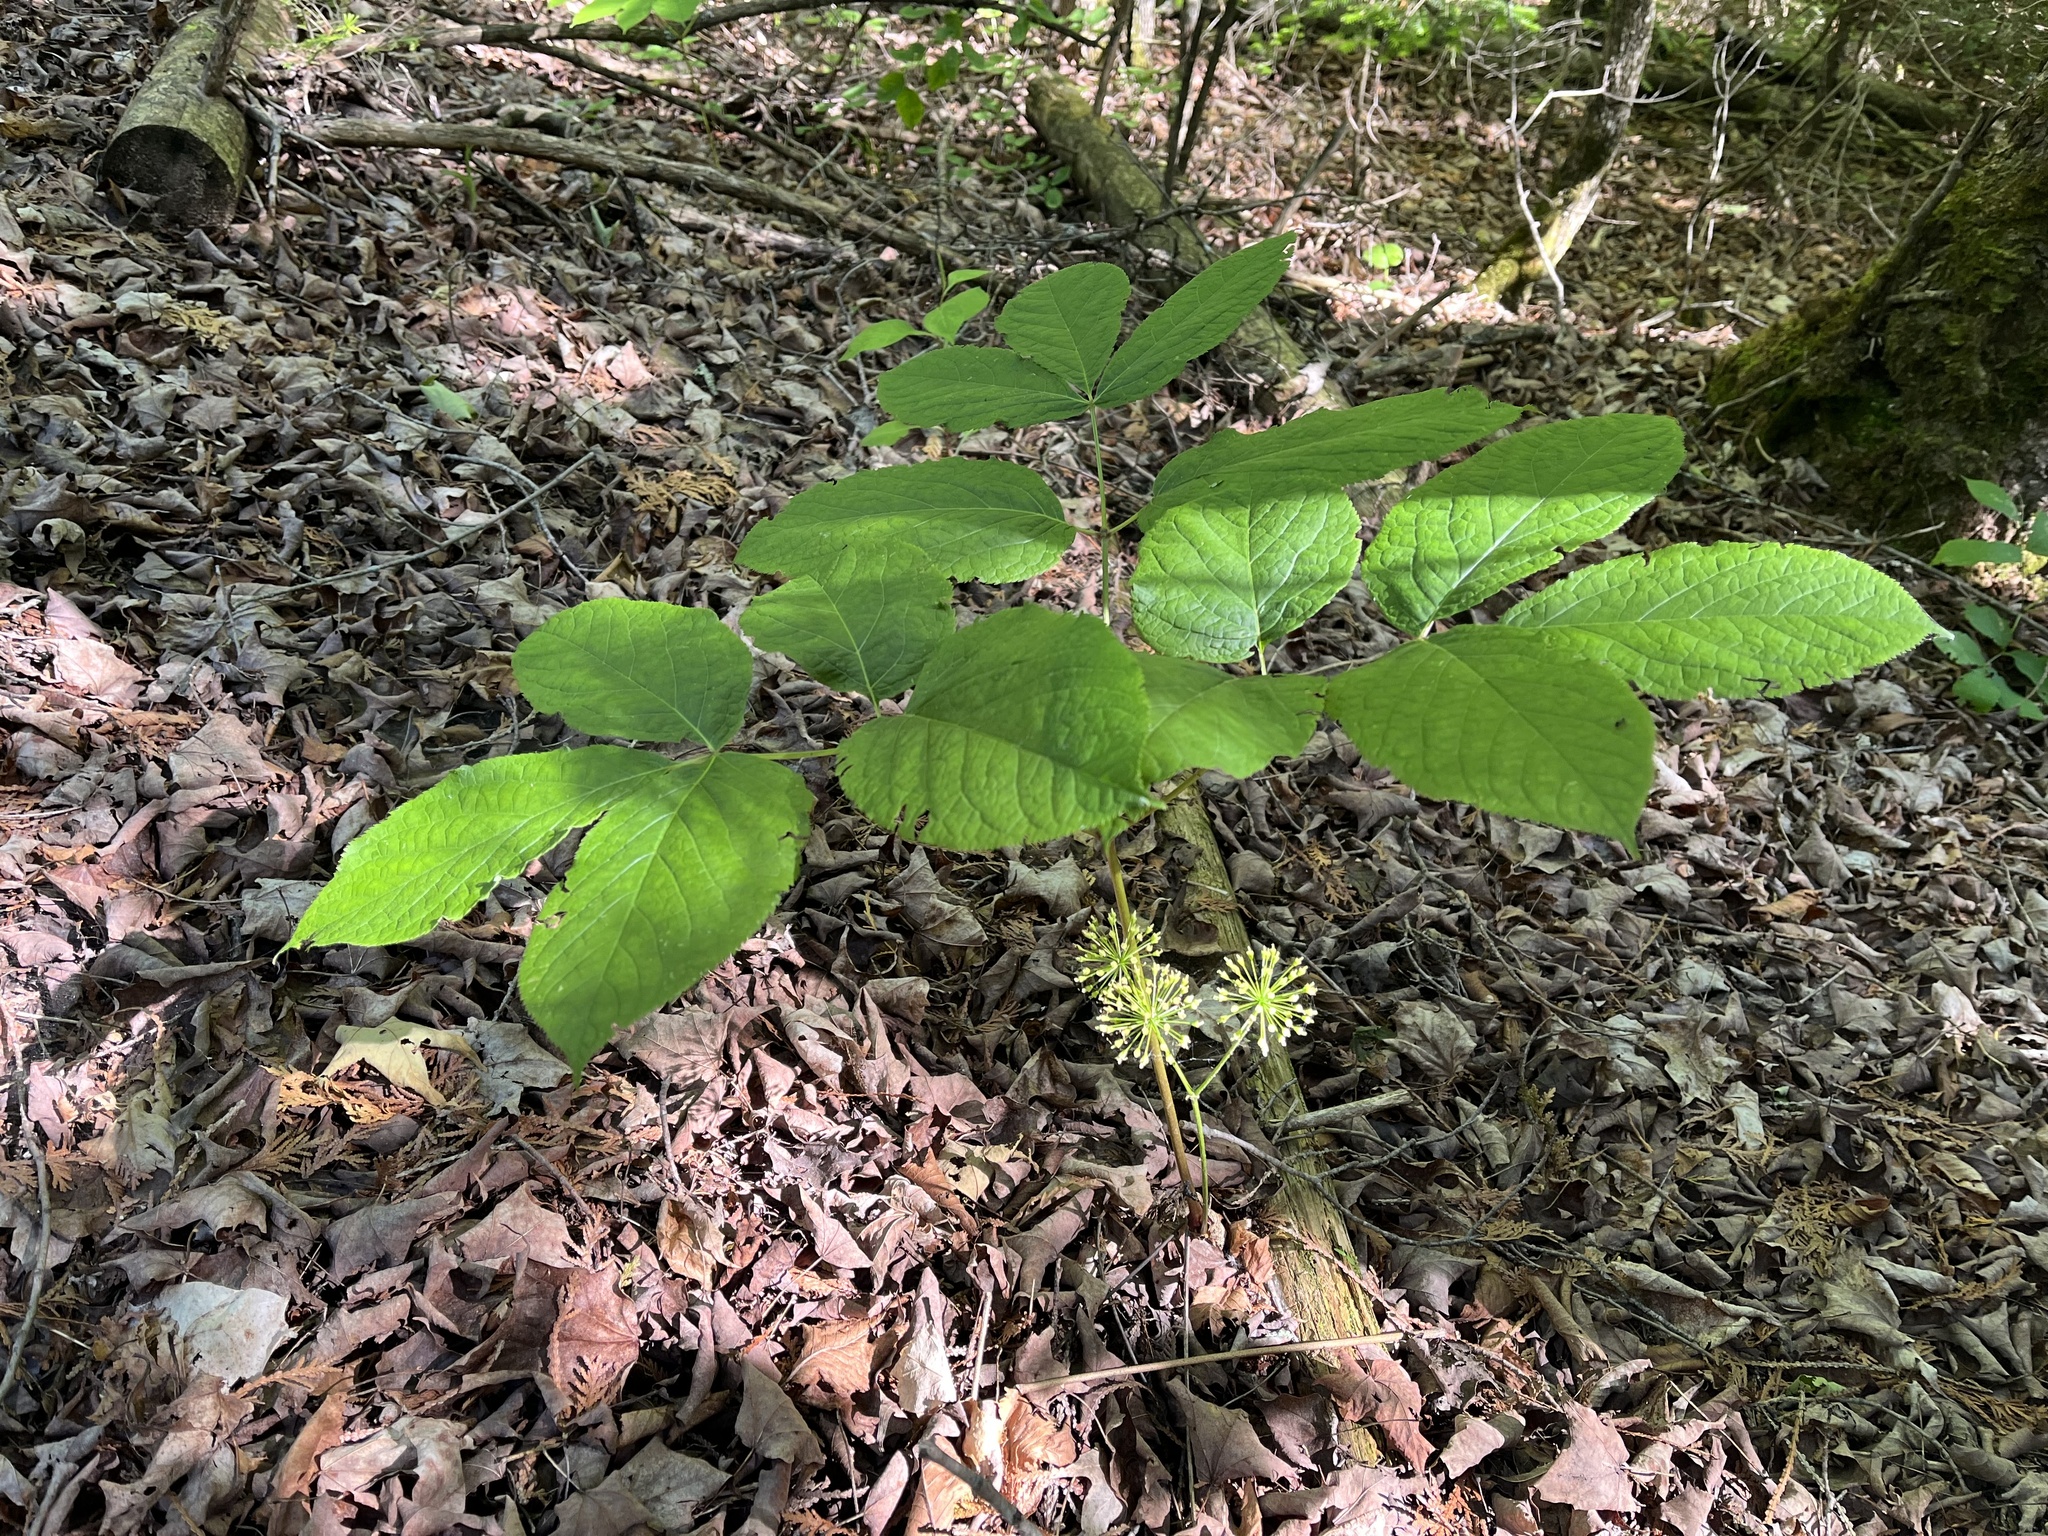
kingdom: Plantae
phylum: Tracheophyta
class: Magnoliopsida
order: Apiales
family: Araliaceae
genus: Aralia
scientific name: Aralia nudicaulis
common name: Wild sarsaparilla
